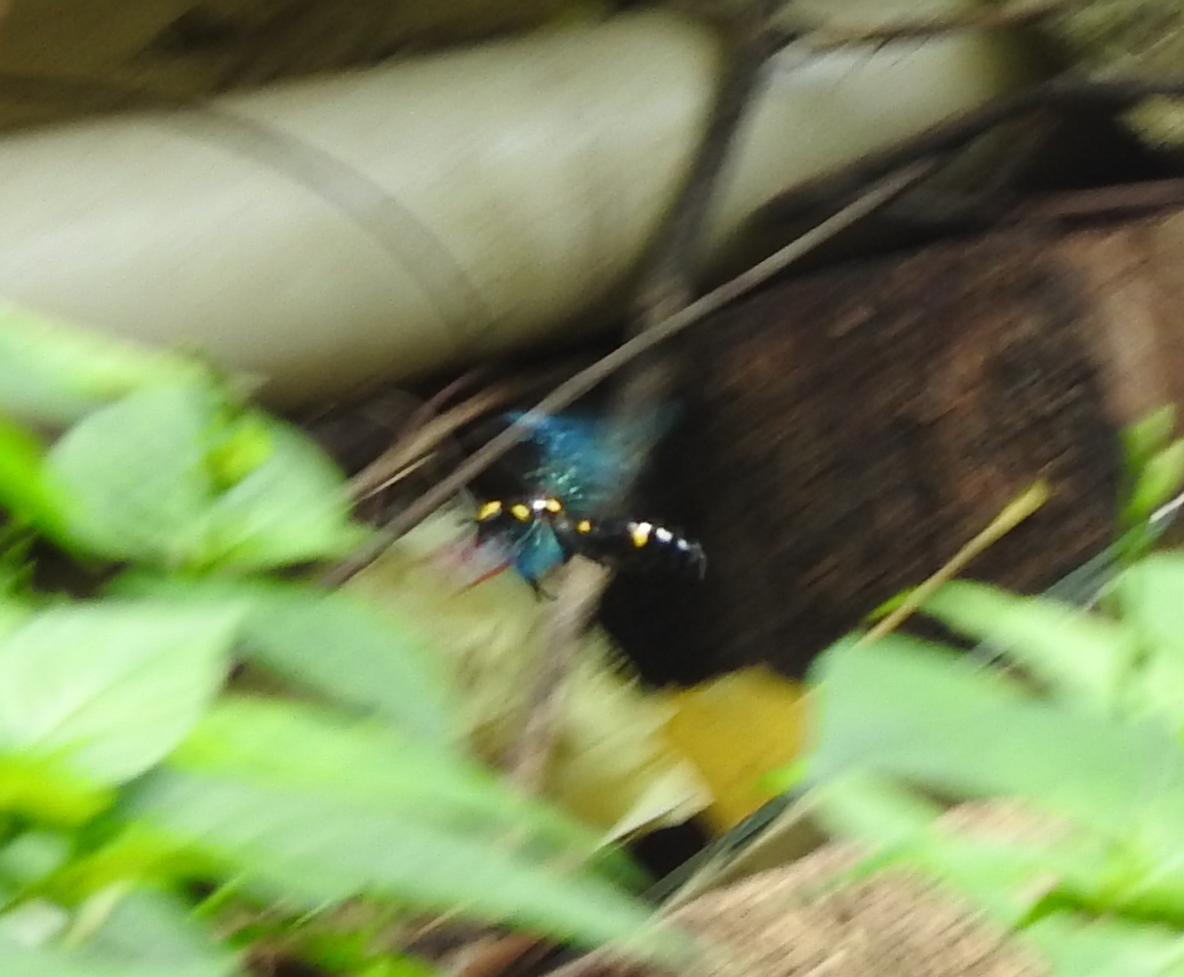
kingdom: Animalia
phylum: Arthropoda
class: Insecta
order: Hymenoptera
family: Scoliidae
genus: Megascolia
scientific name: Megascolia
